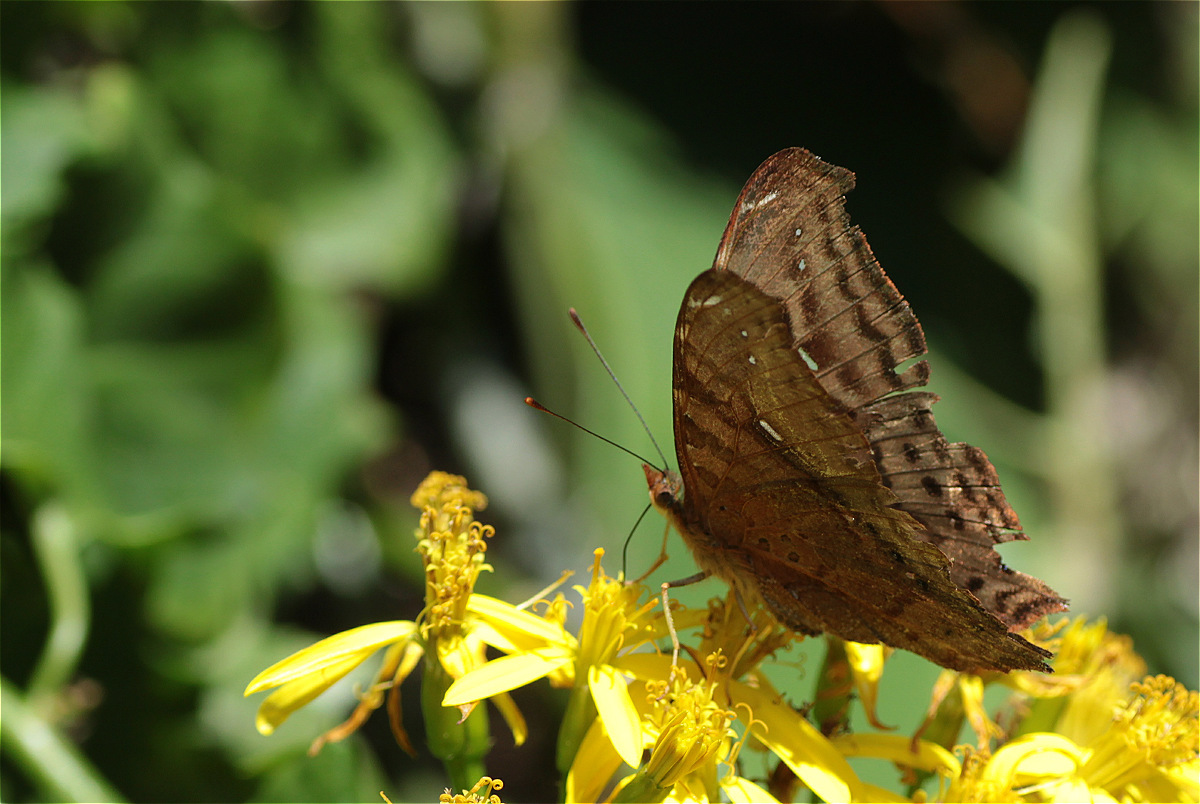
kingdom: Animalia
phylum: Arthropoda
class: Insecta
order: Lepidoptera
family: Nymphalidae
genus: Hypanartia
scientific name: Hypanartia dione
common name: Banded mapwing
